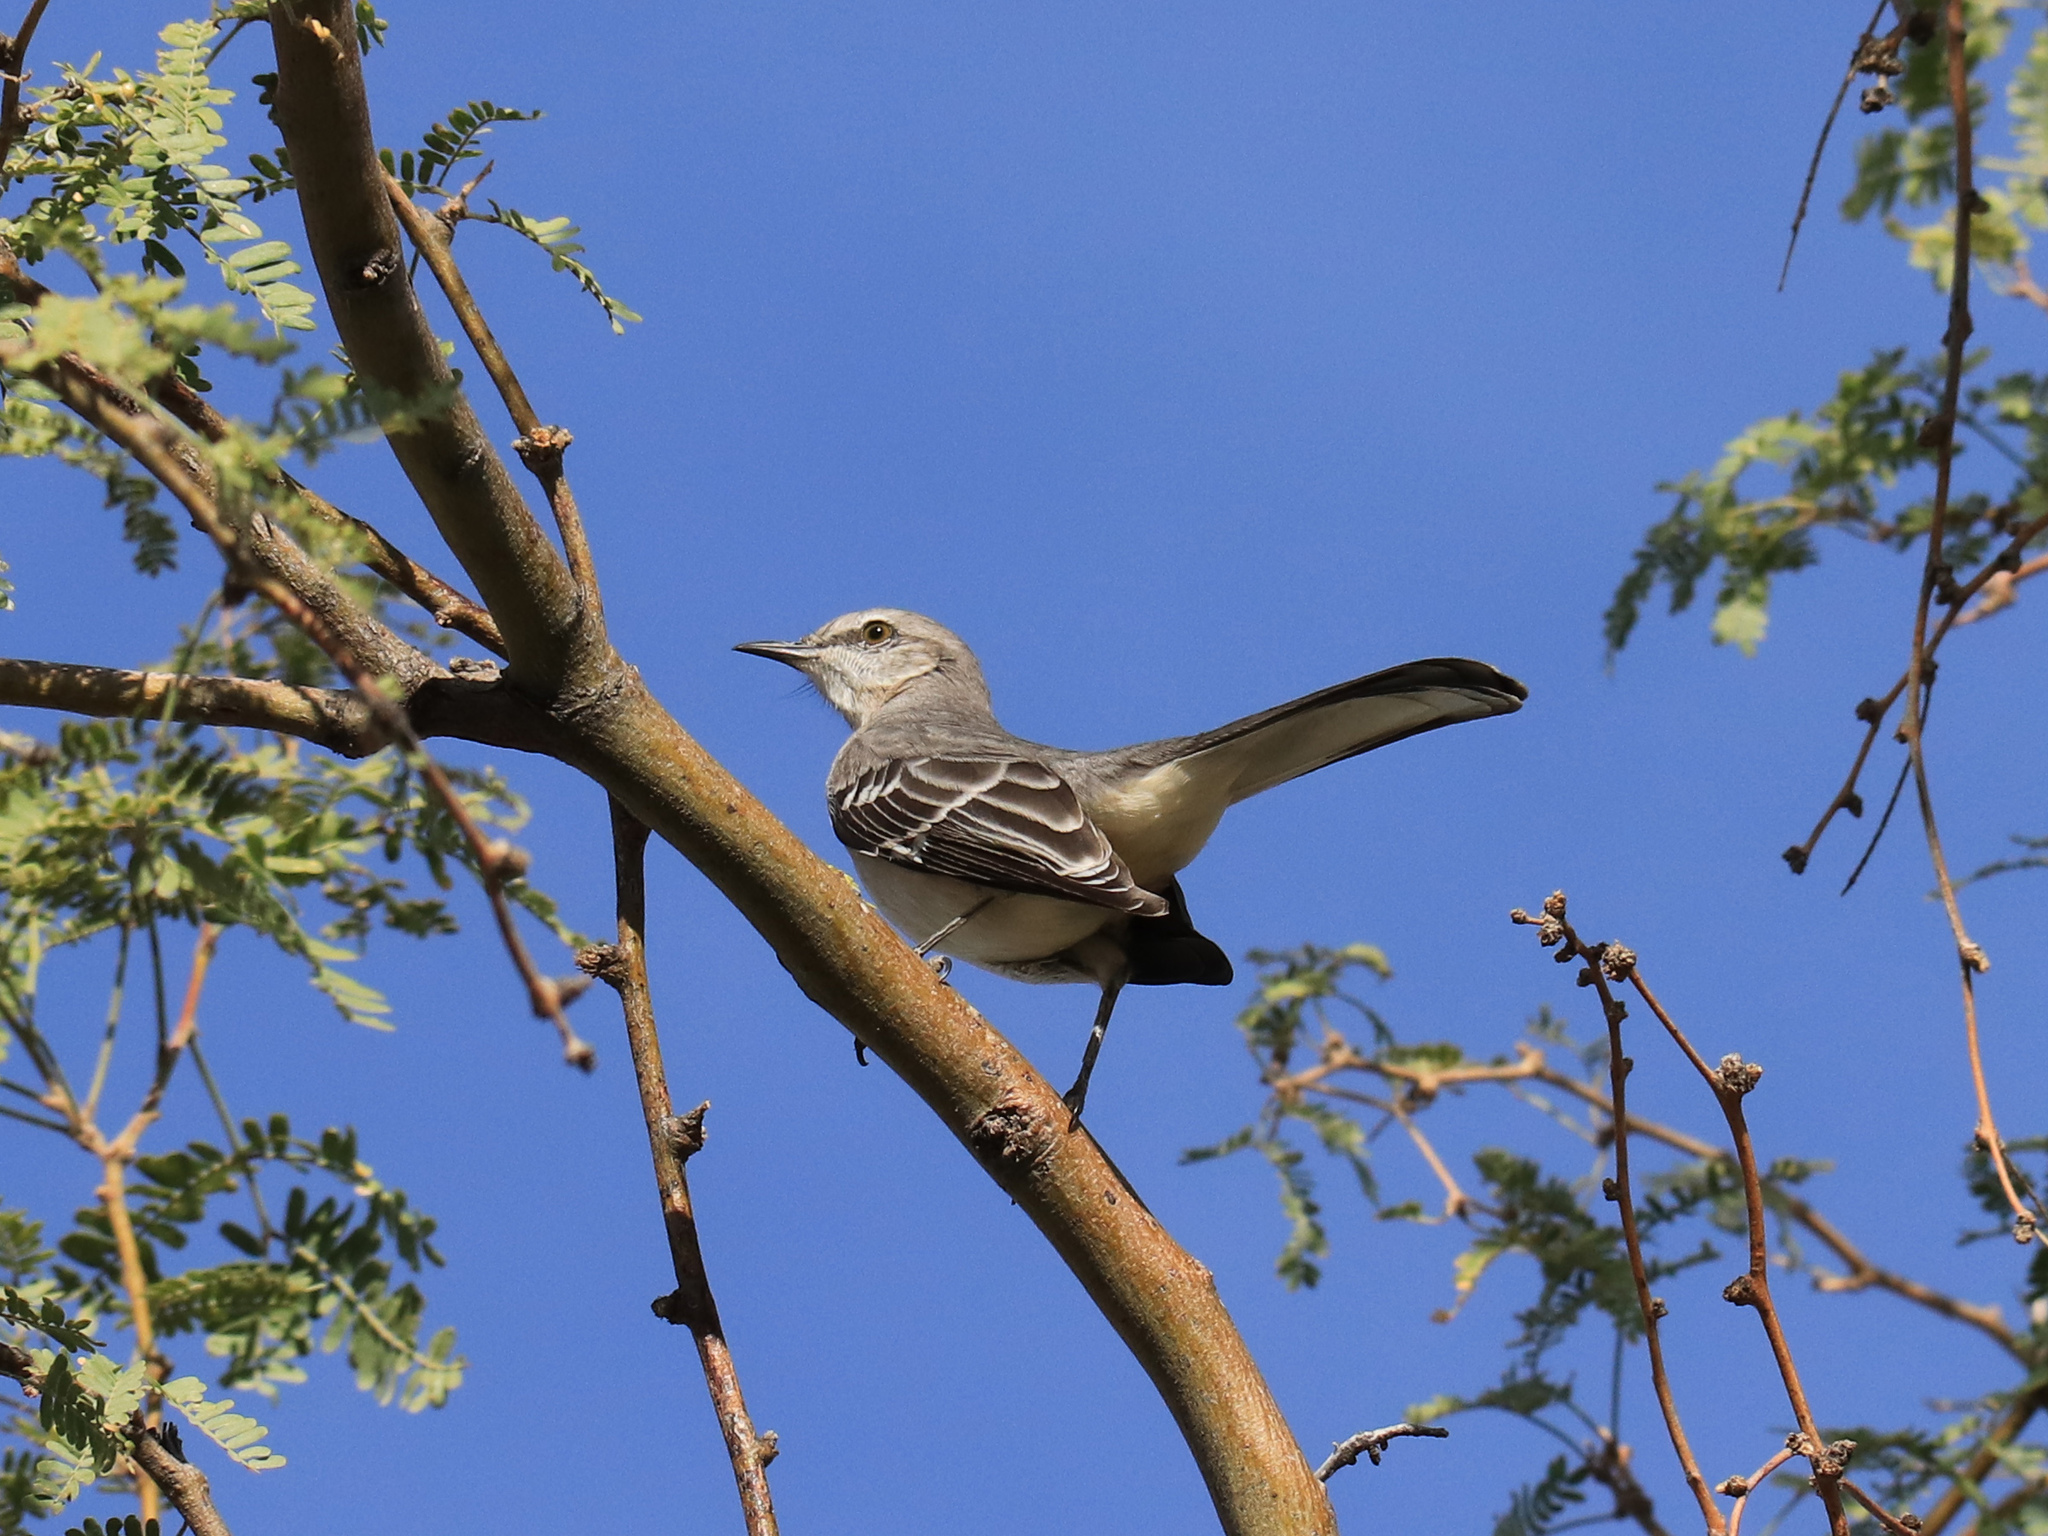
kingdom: Animalia
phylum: Chordata
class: Aves
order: Passeriformes
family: Mimidae
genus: Mimus
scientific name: Mimus polyglottos
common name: Northern mockingbird
